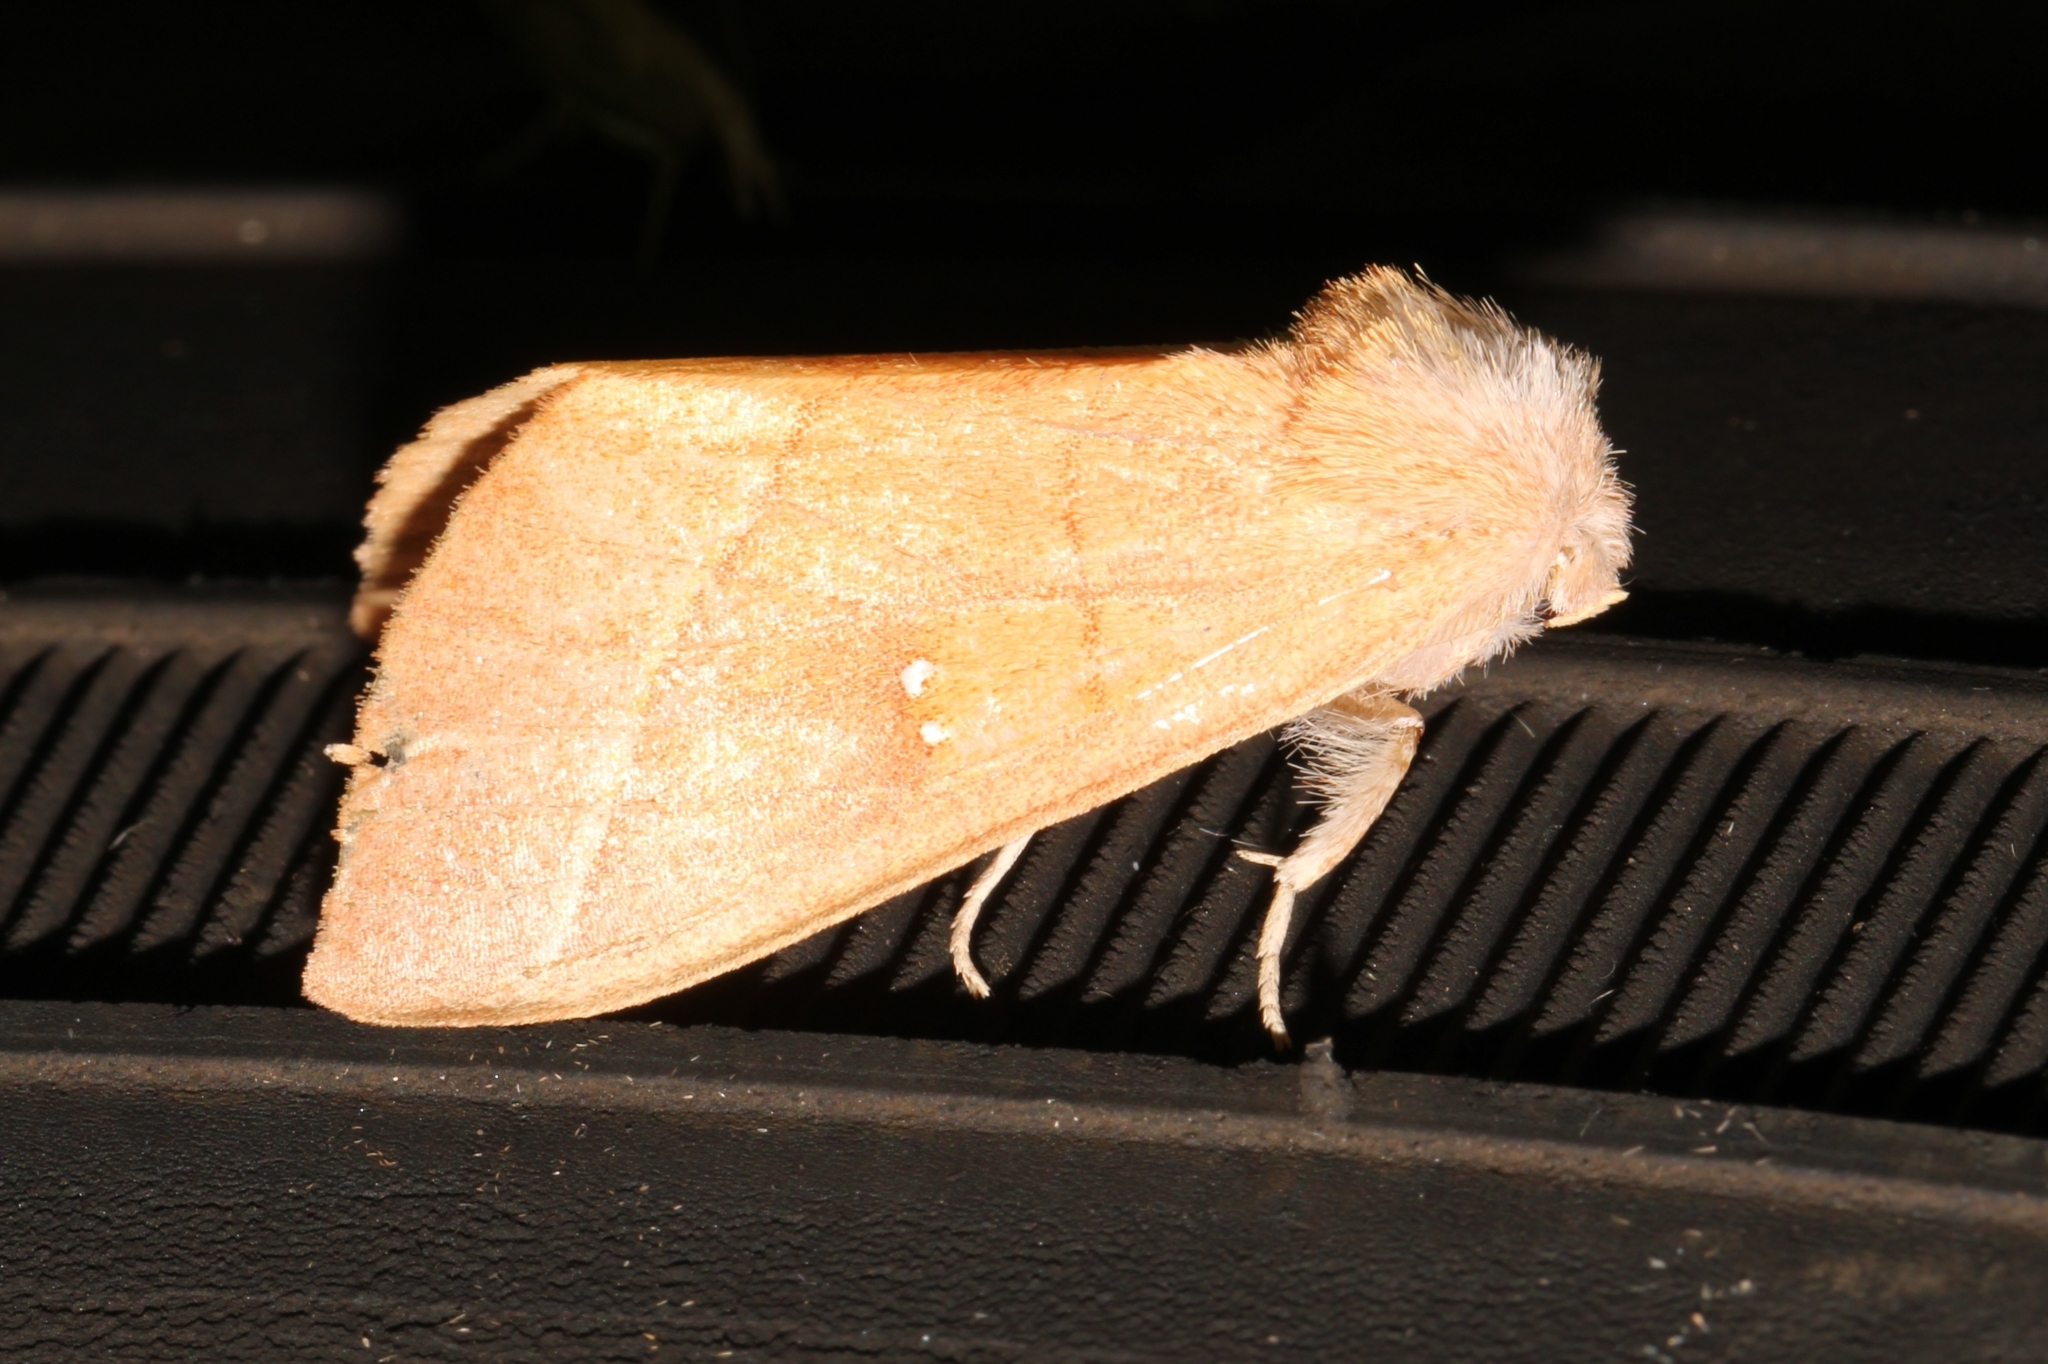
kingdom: Animalia
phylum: Arthropoda
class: Insecta
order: Lepidoptera
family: Notodontidae
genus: Nadata
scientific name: Nadata gibbosa
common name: White-dotted prominent
